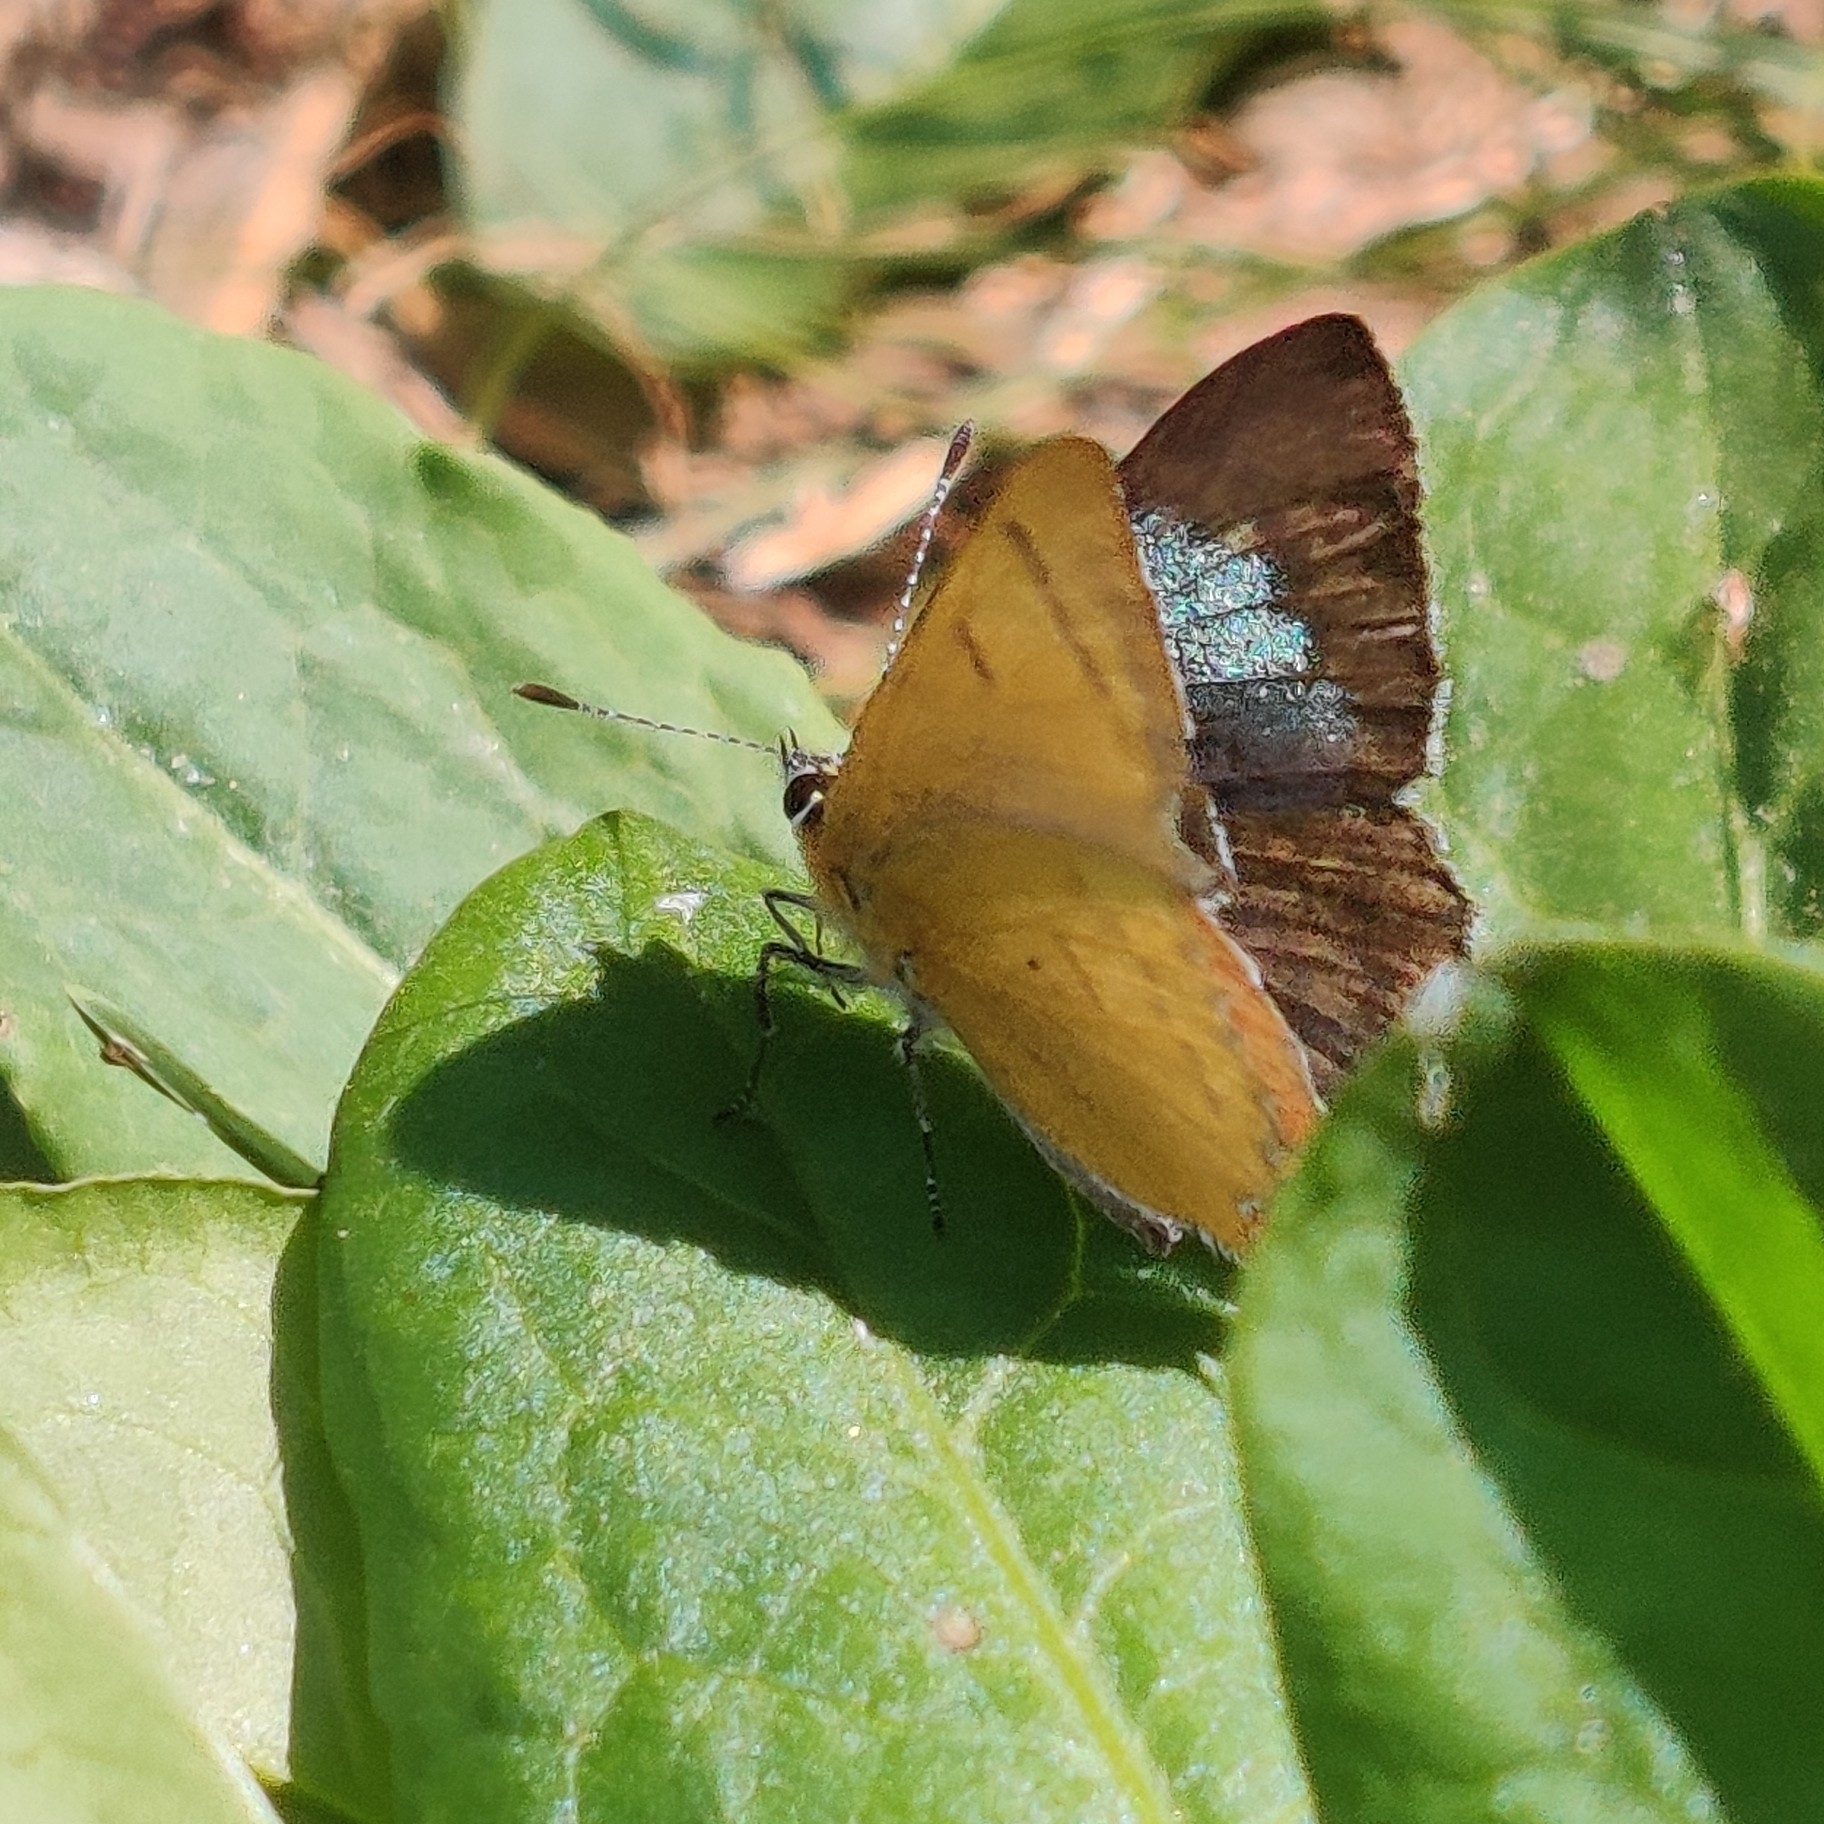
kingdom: Animalia
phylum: Arthropoda
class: Insecta
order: Lepidoptera
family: Lycaenidae
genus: Heliophorus
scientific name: Heliophorus
